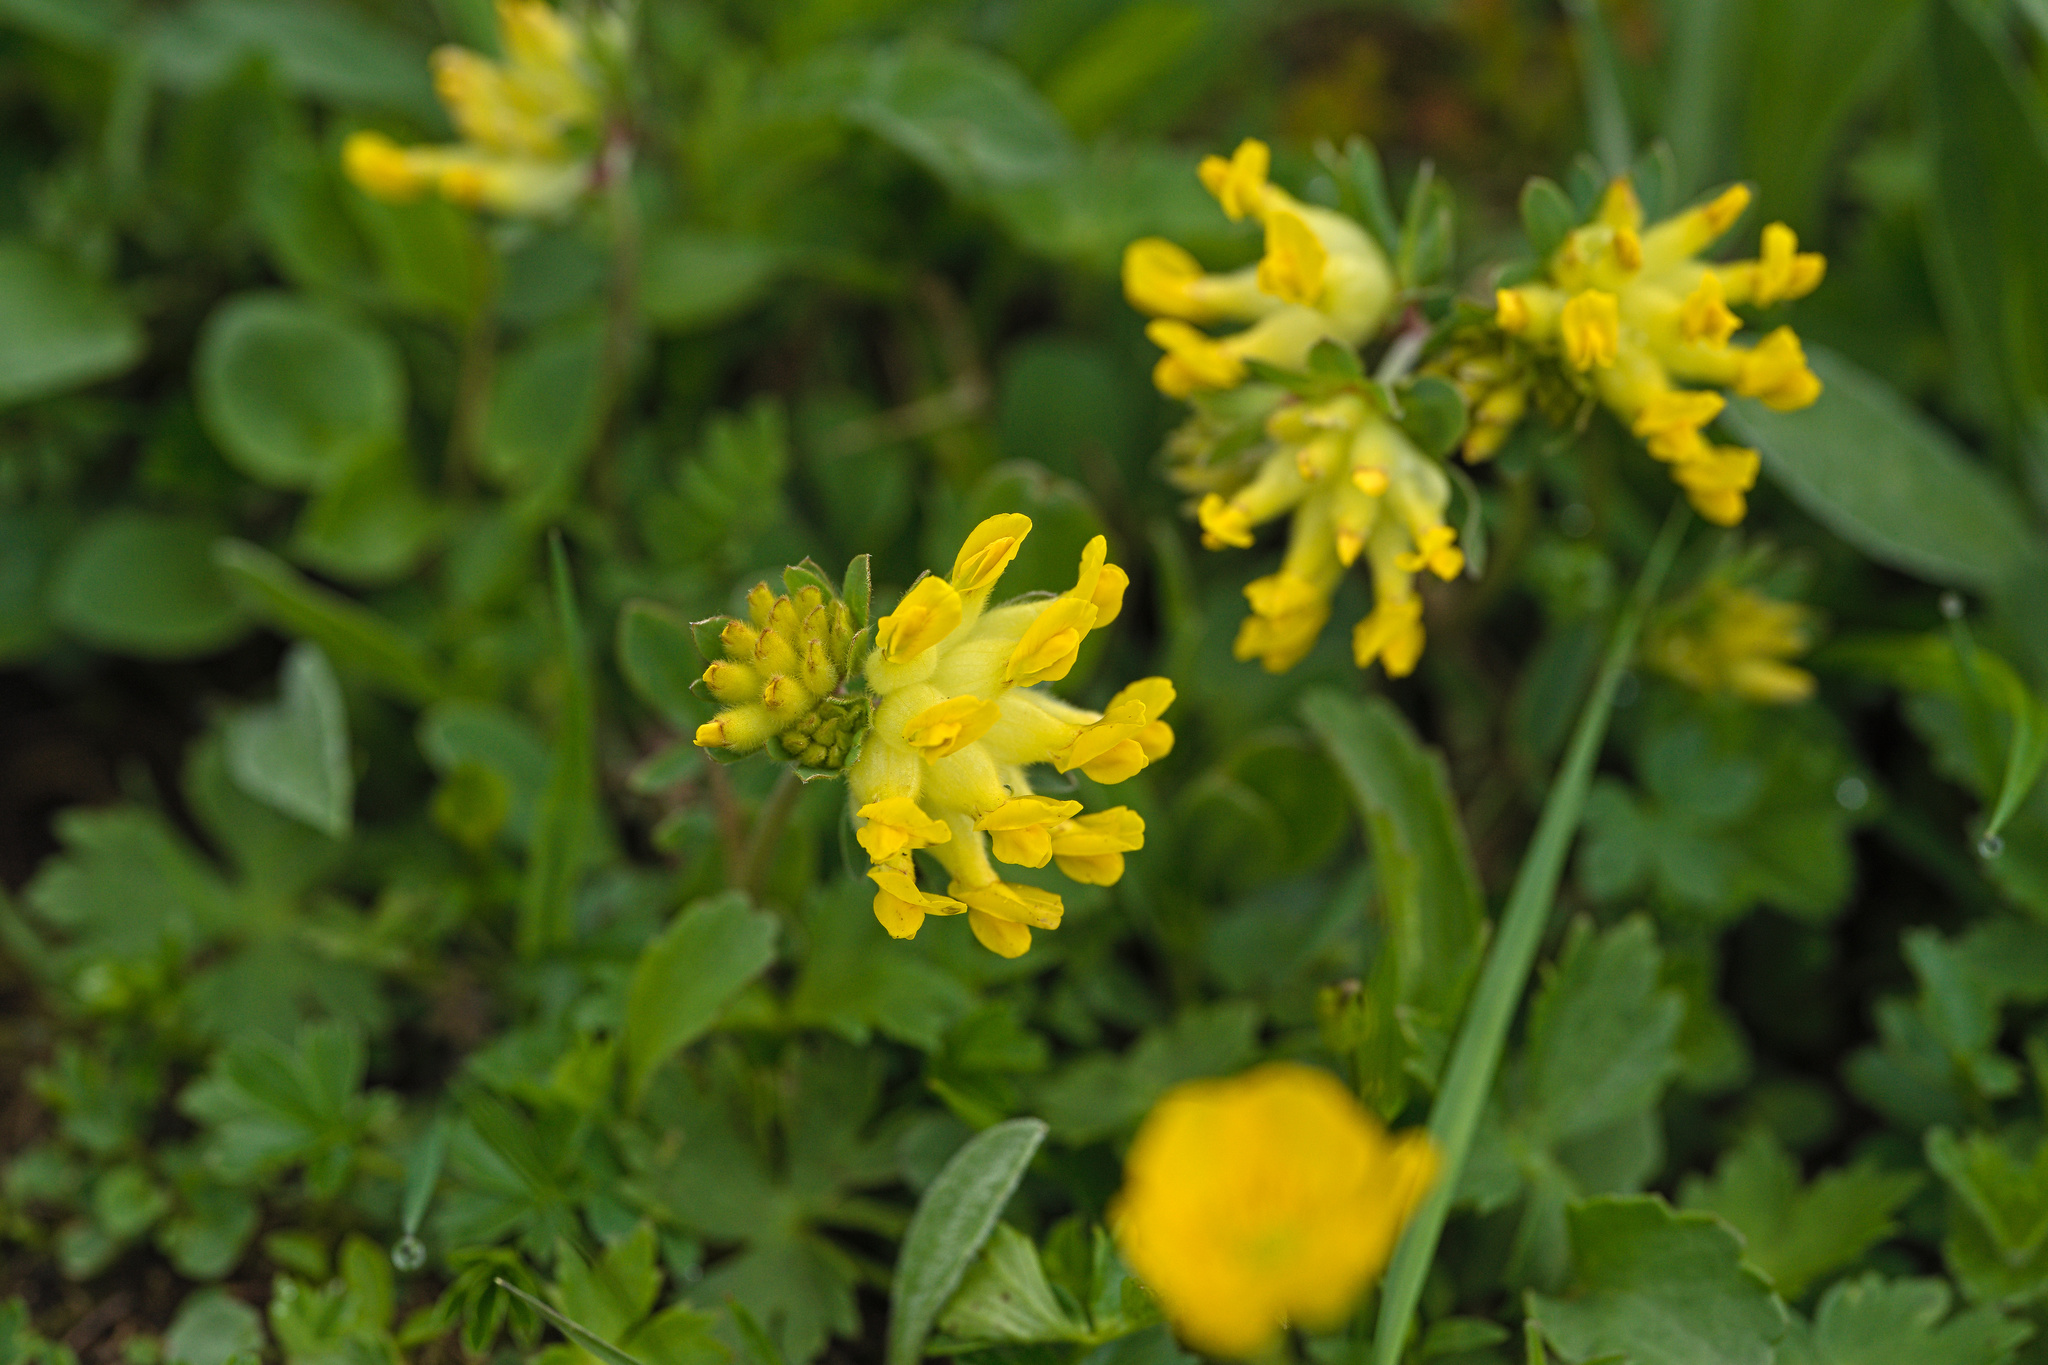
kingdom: Plantae
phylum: Tracheophyta
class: Magnoliopsida
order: Fabales
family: Fabaceae
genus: Anthyllis
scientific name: Anthyllis vulneraria
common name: Kidney vetch
